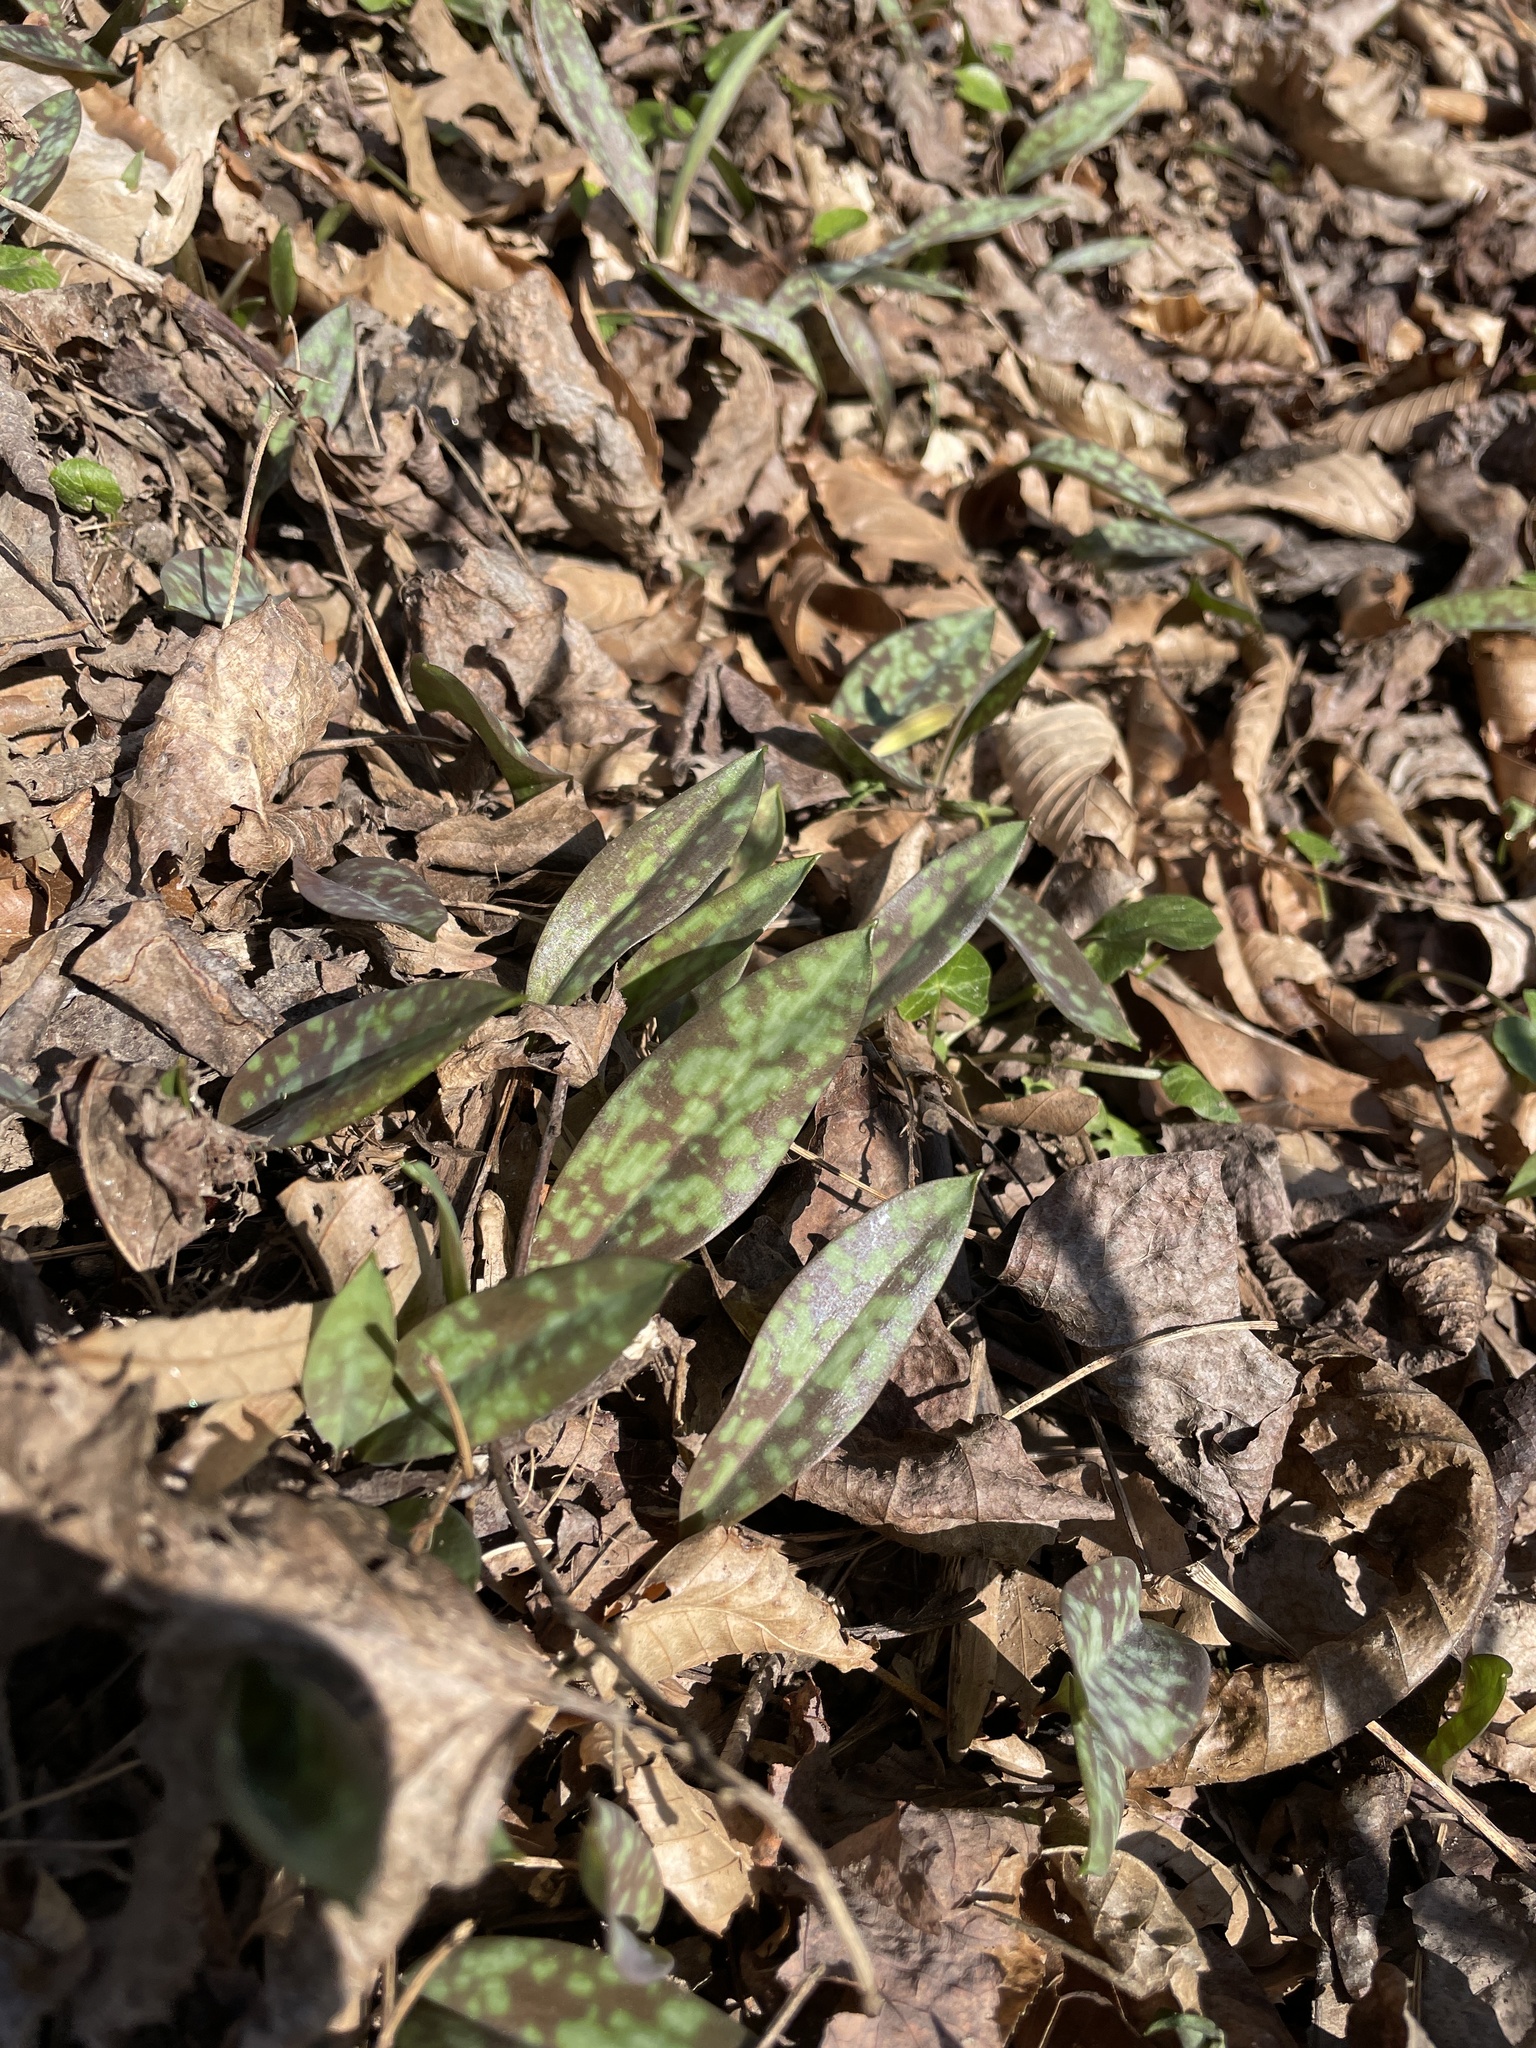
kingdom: Plantae
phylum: Tracheophyta
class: Liliopsida
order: Liliales
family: Liliaceae
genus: Erythronium
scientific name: Erythronium americanum
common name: Yellow adder's-tongue
